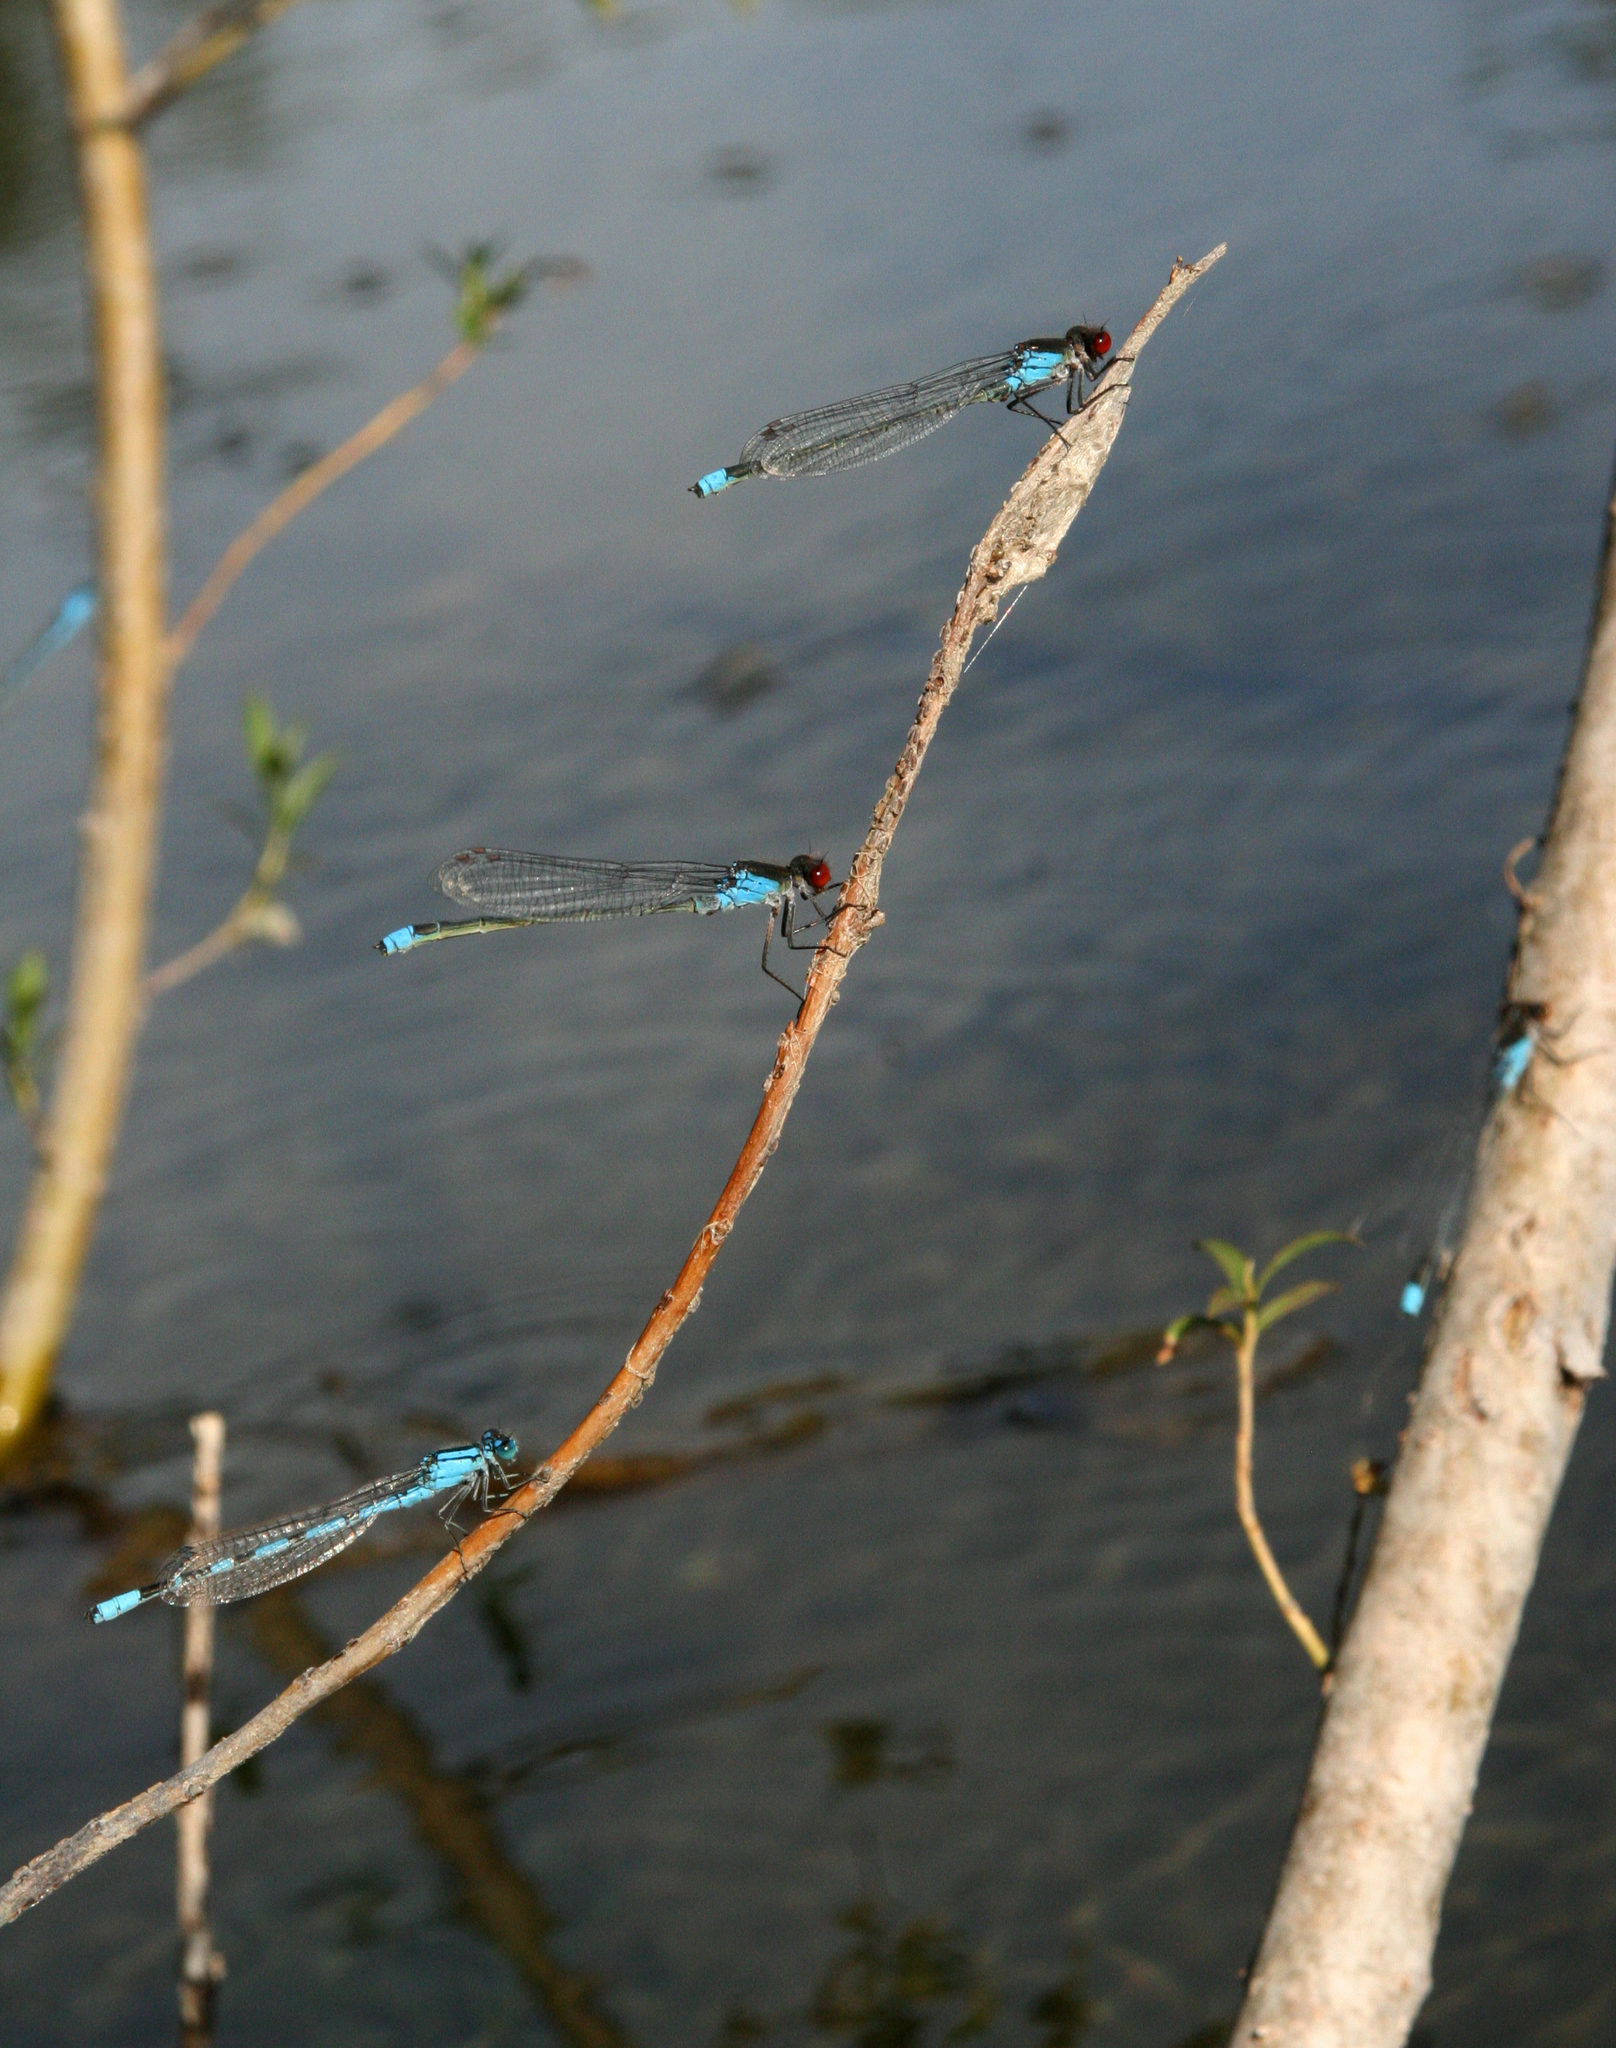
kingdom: Animalia
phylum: Arthropoda
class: Insecta
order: Odonata
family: Coenagrionidae
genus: Erythromma
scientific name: Erythromma najas
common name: Red-eyed damselfly
